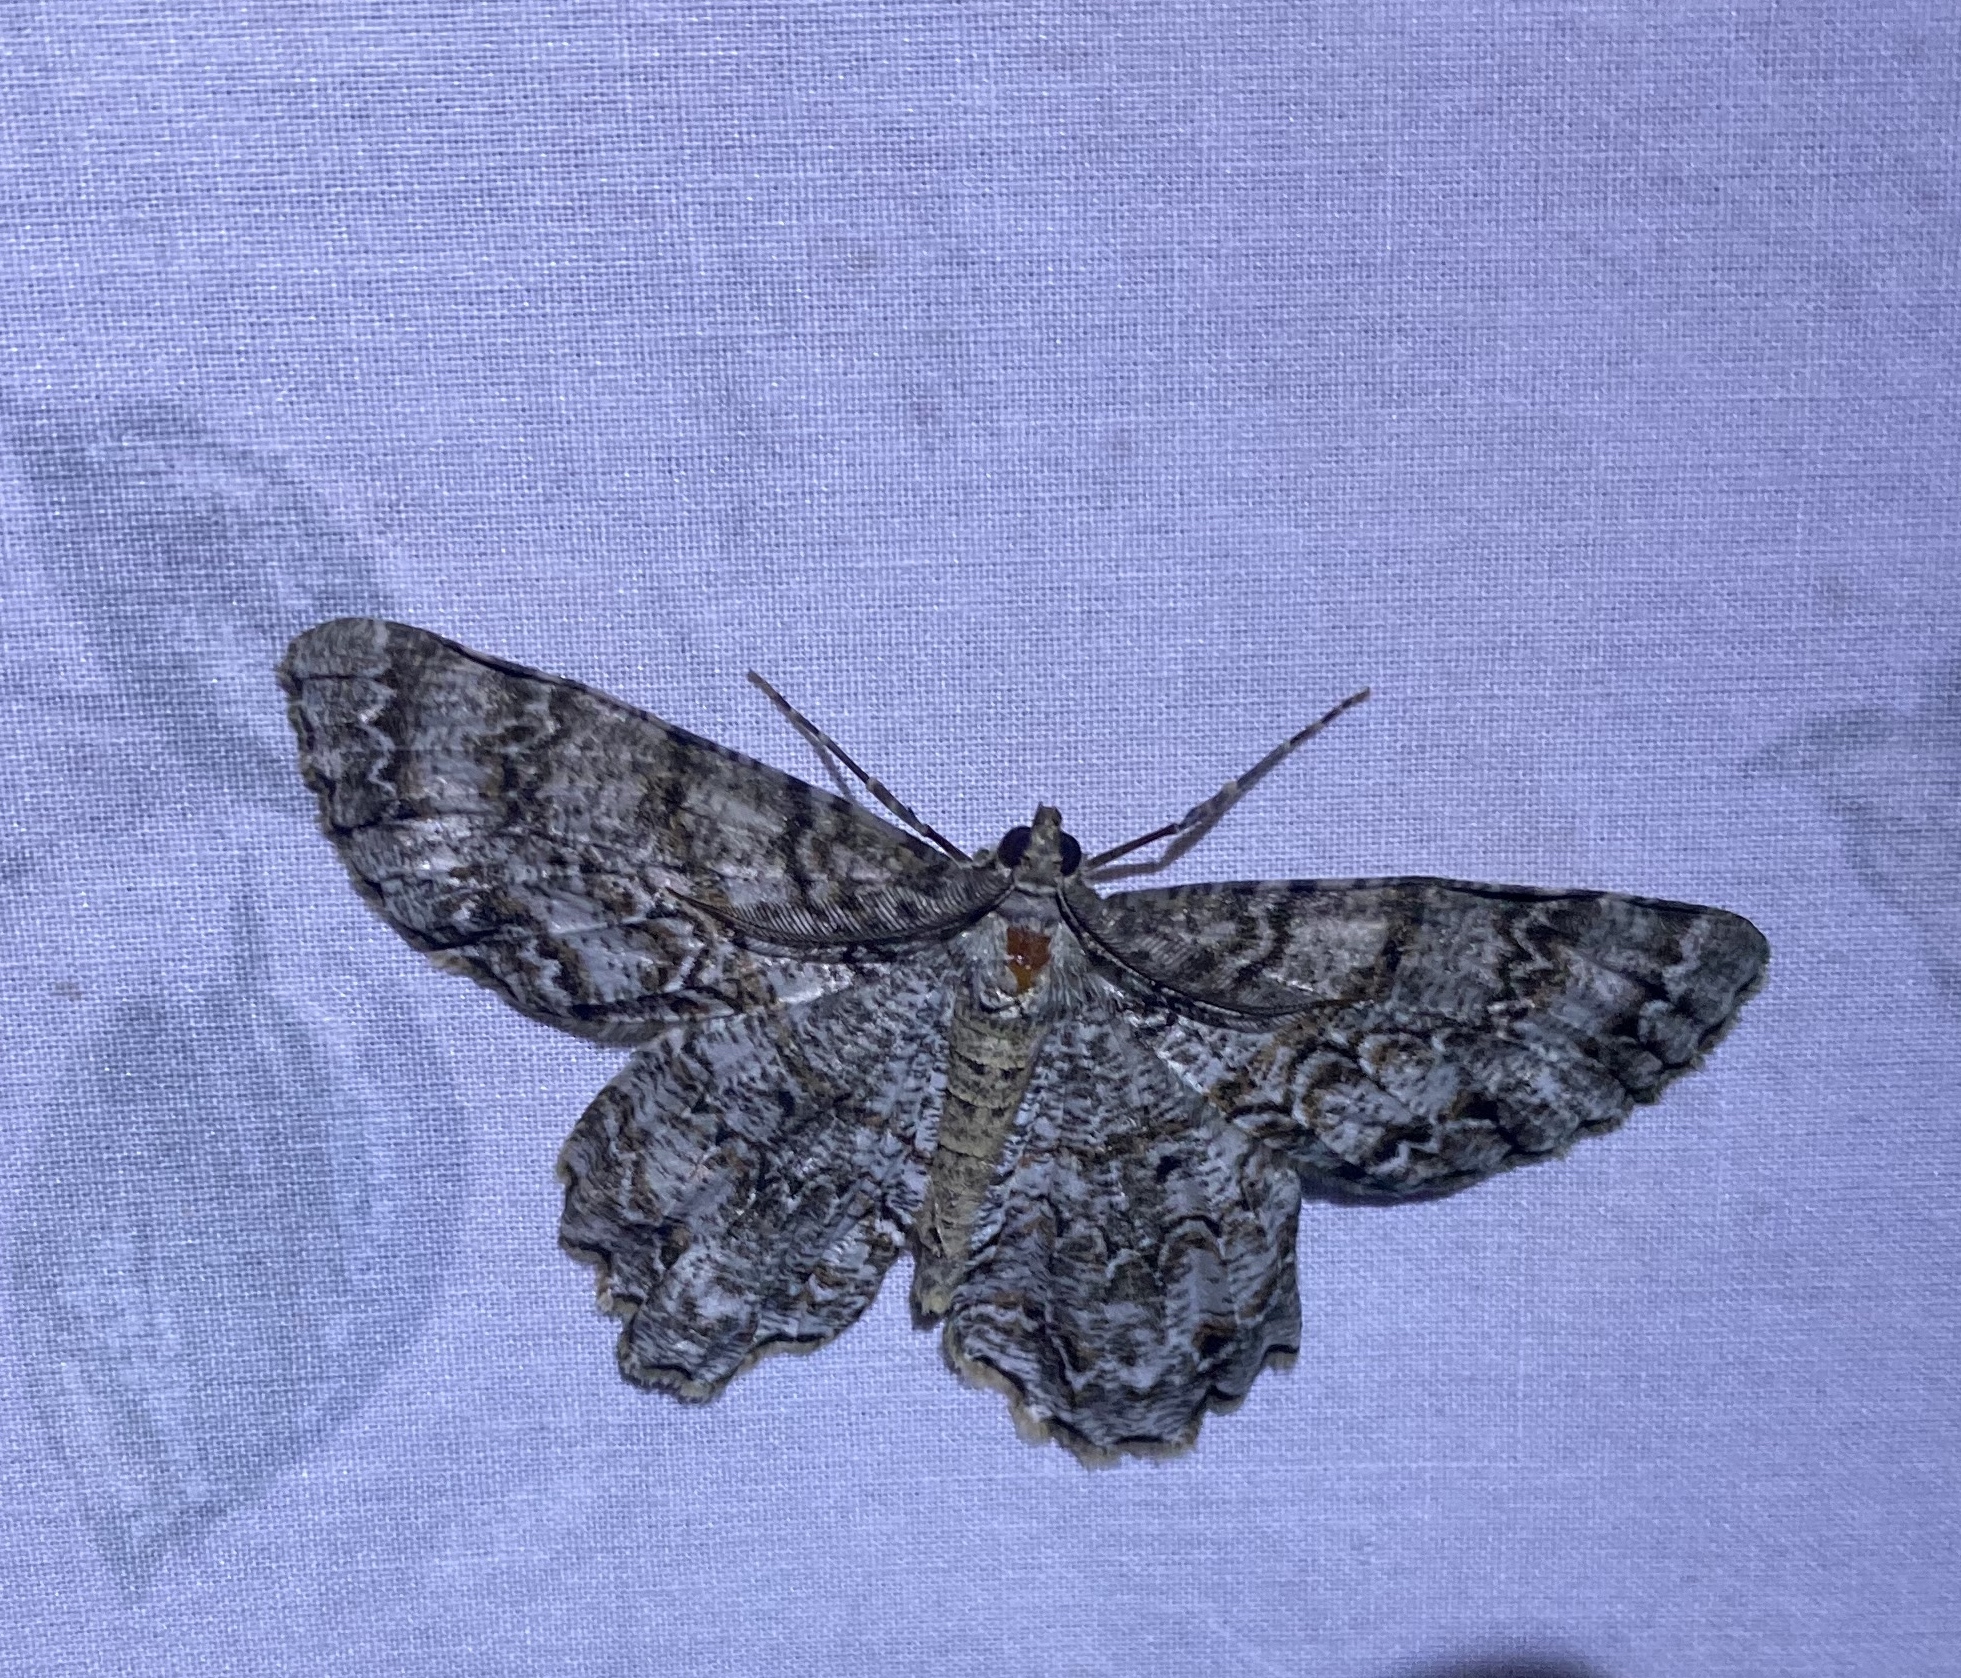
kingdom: Animalia
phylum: Arthropoda
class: Insecta
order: Lepidoptera
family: Geometridae
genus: Epimecis
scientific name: Epimecis hortaria
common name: Tulip-tree beauty
